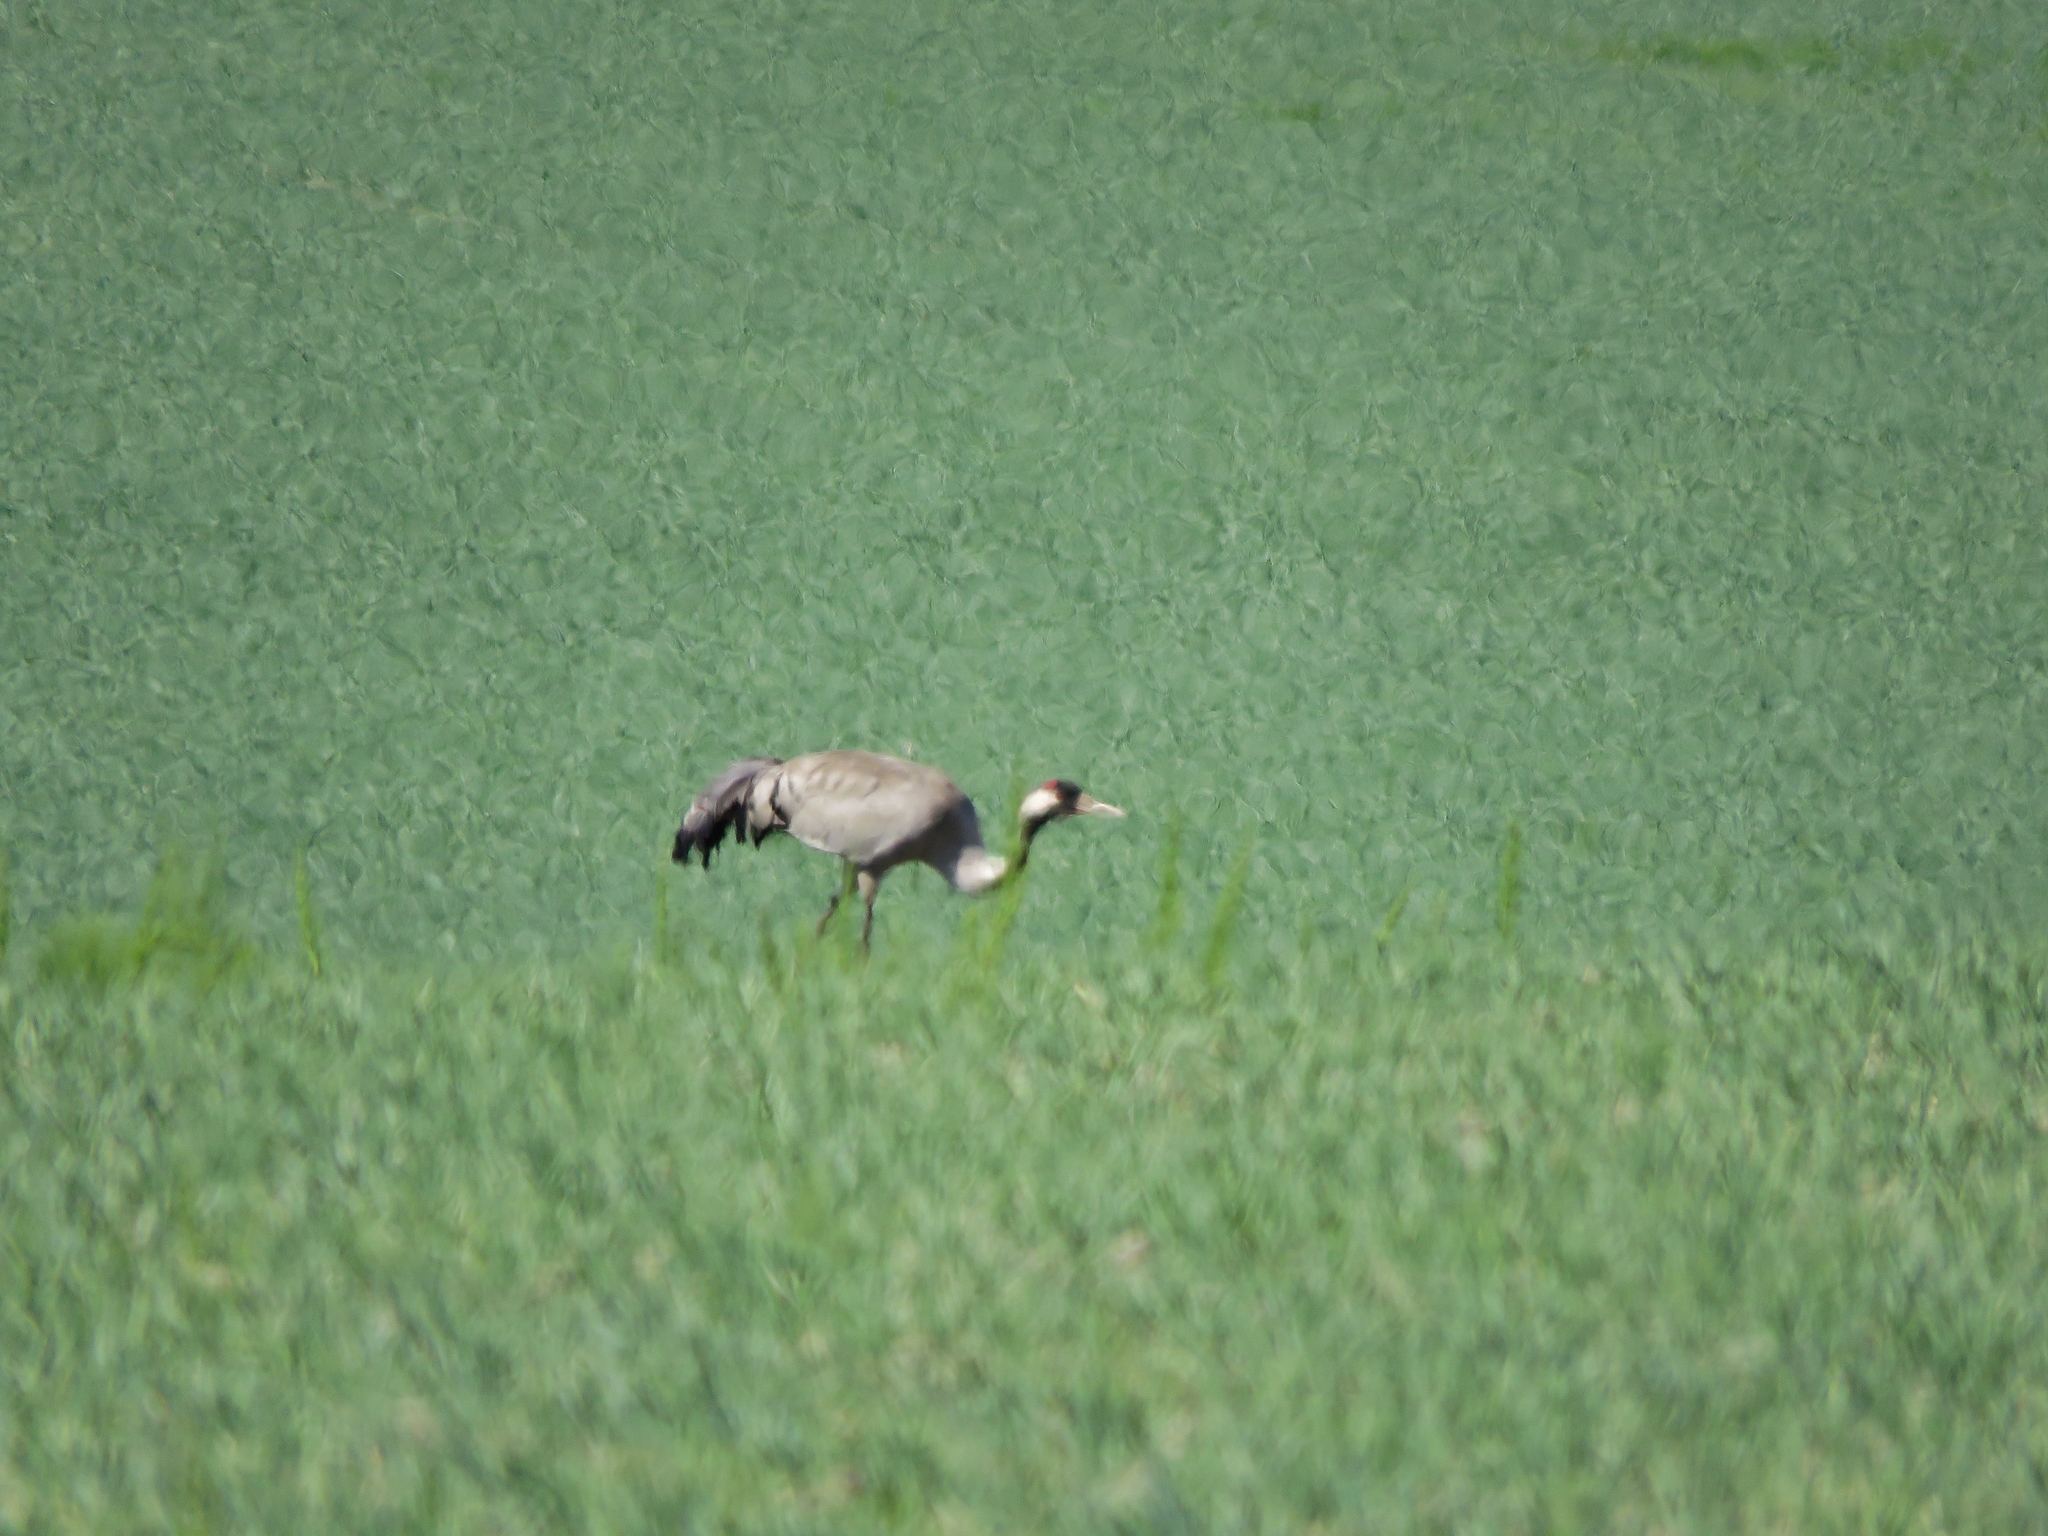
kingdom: Animalia
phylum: Chordata
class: Aves
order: Gruiformes
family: Gruidae
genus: Grus
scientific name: Grus grus
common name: Common crane
